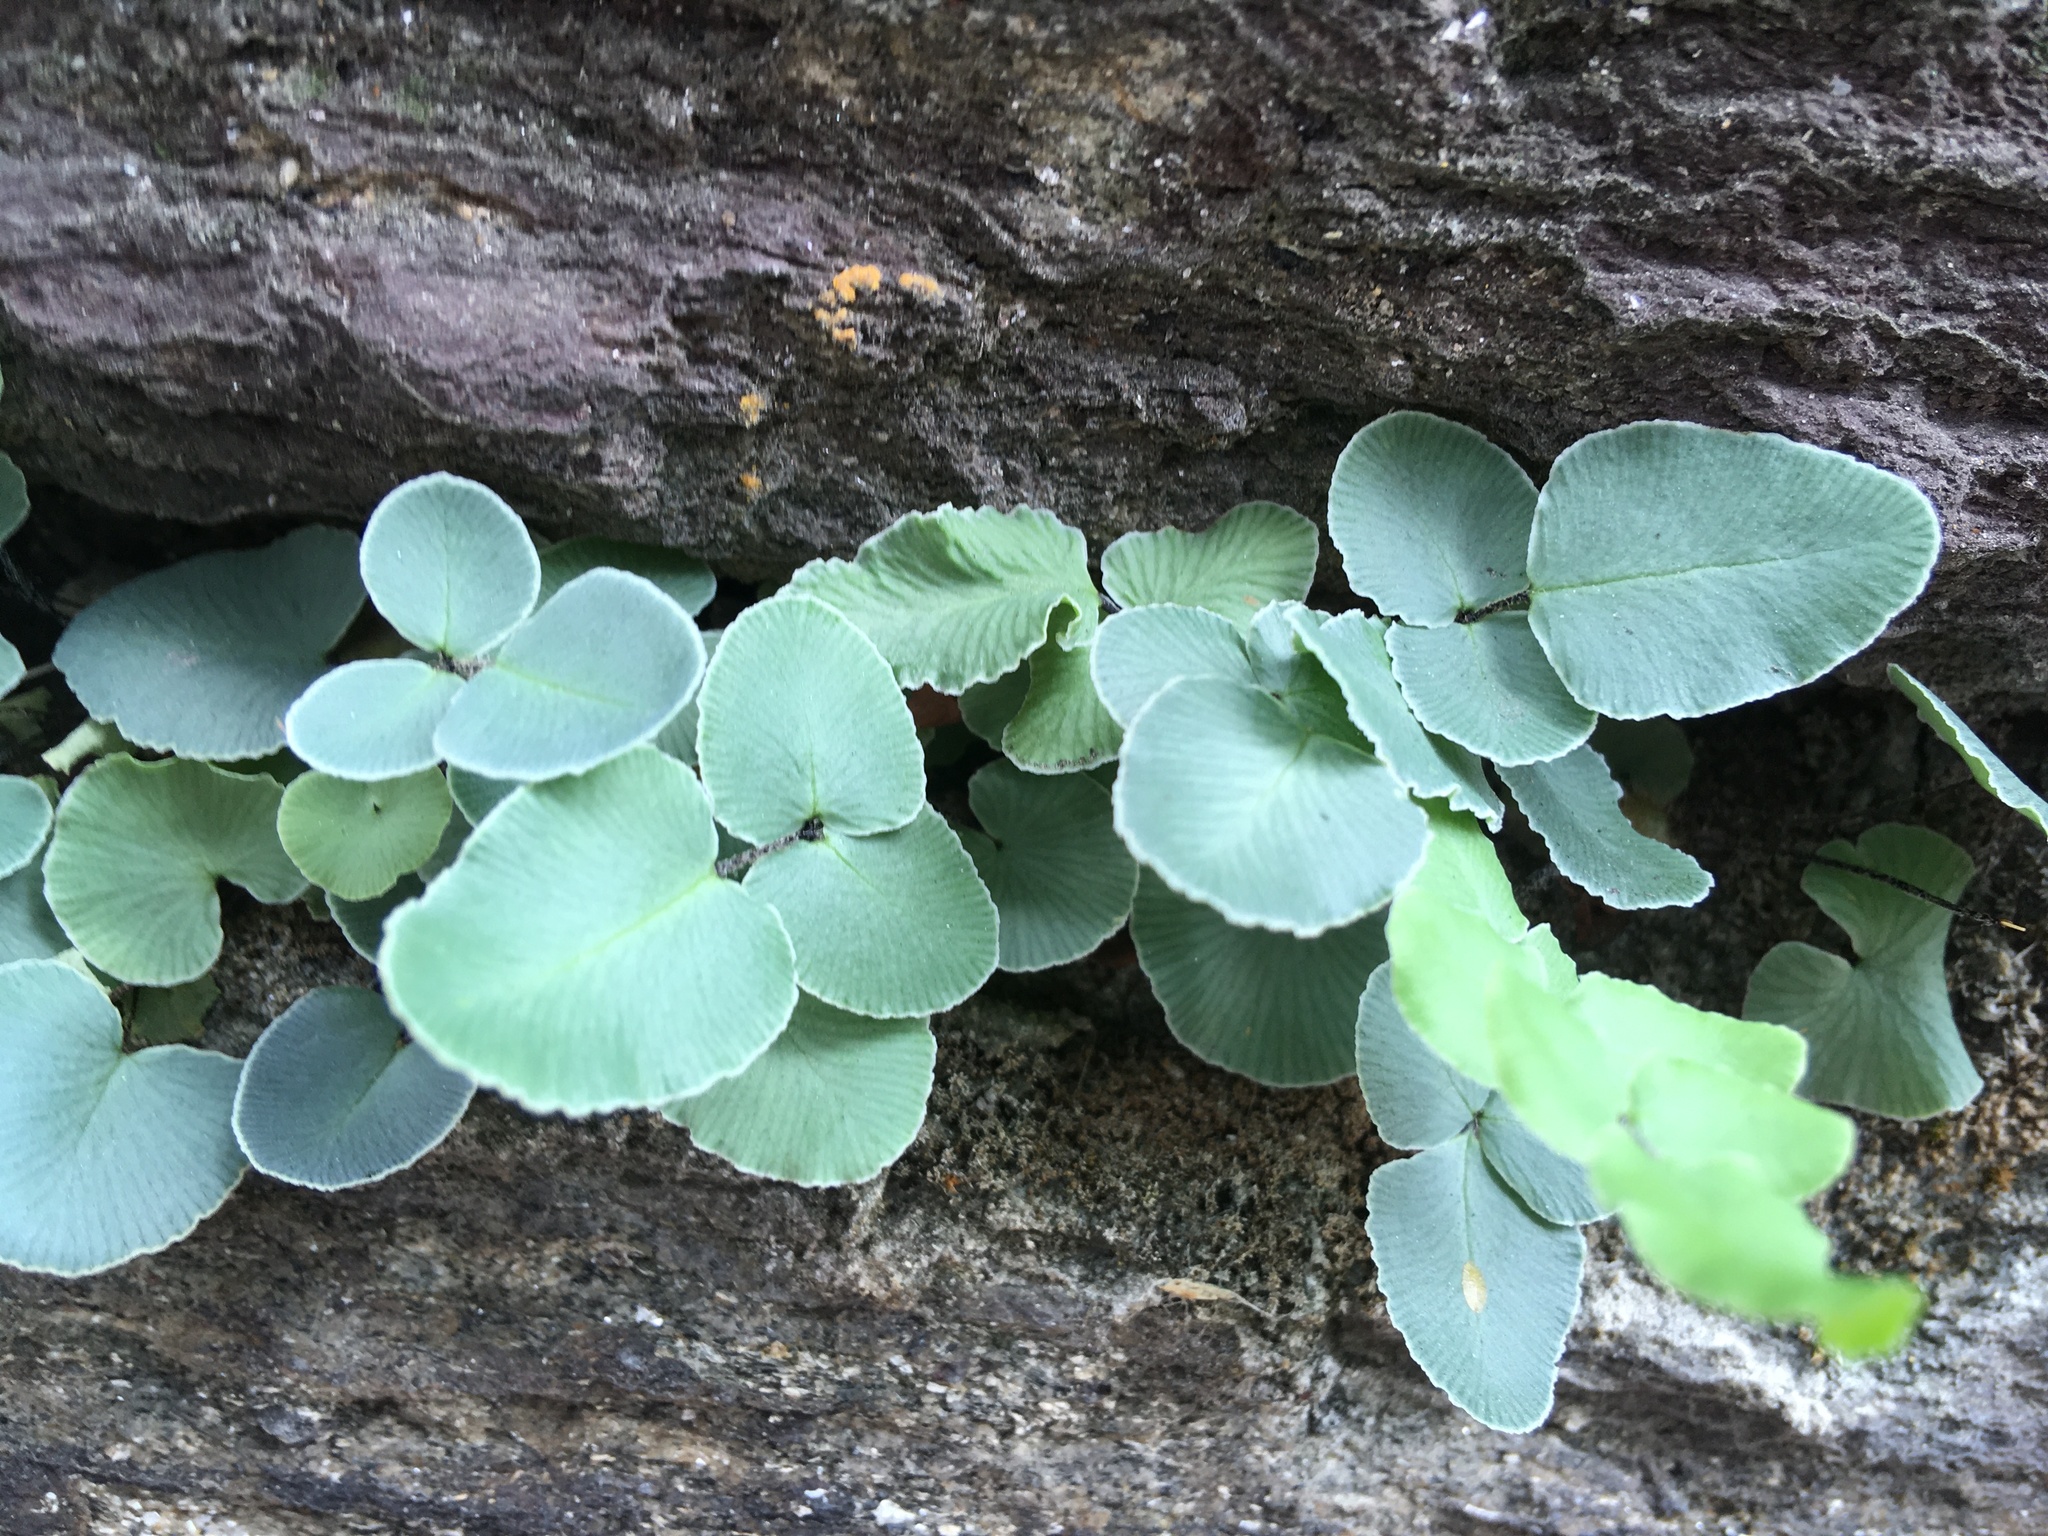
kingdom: Plantae
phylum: Tracheophyta
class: Polypodiopsida
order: Polypodiales
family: Pteridaceae
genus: Pellaea
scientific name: Pellaea atropurpurea
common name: Hairy cliffbrake
